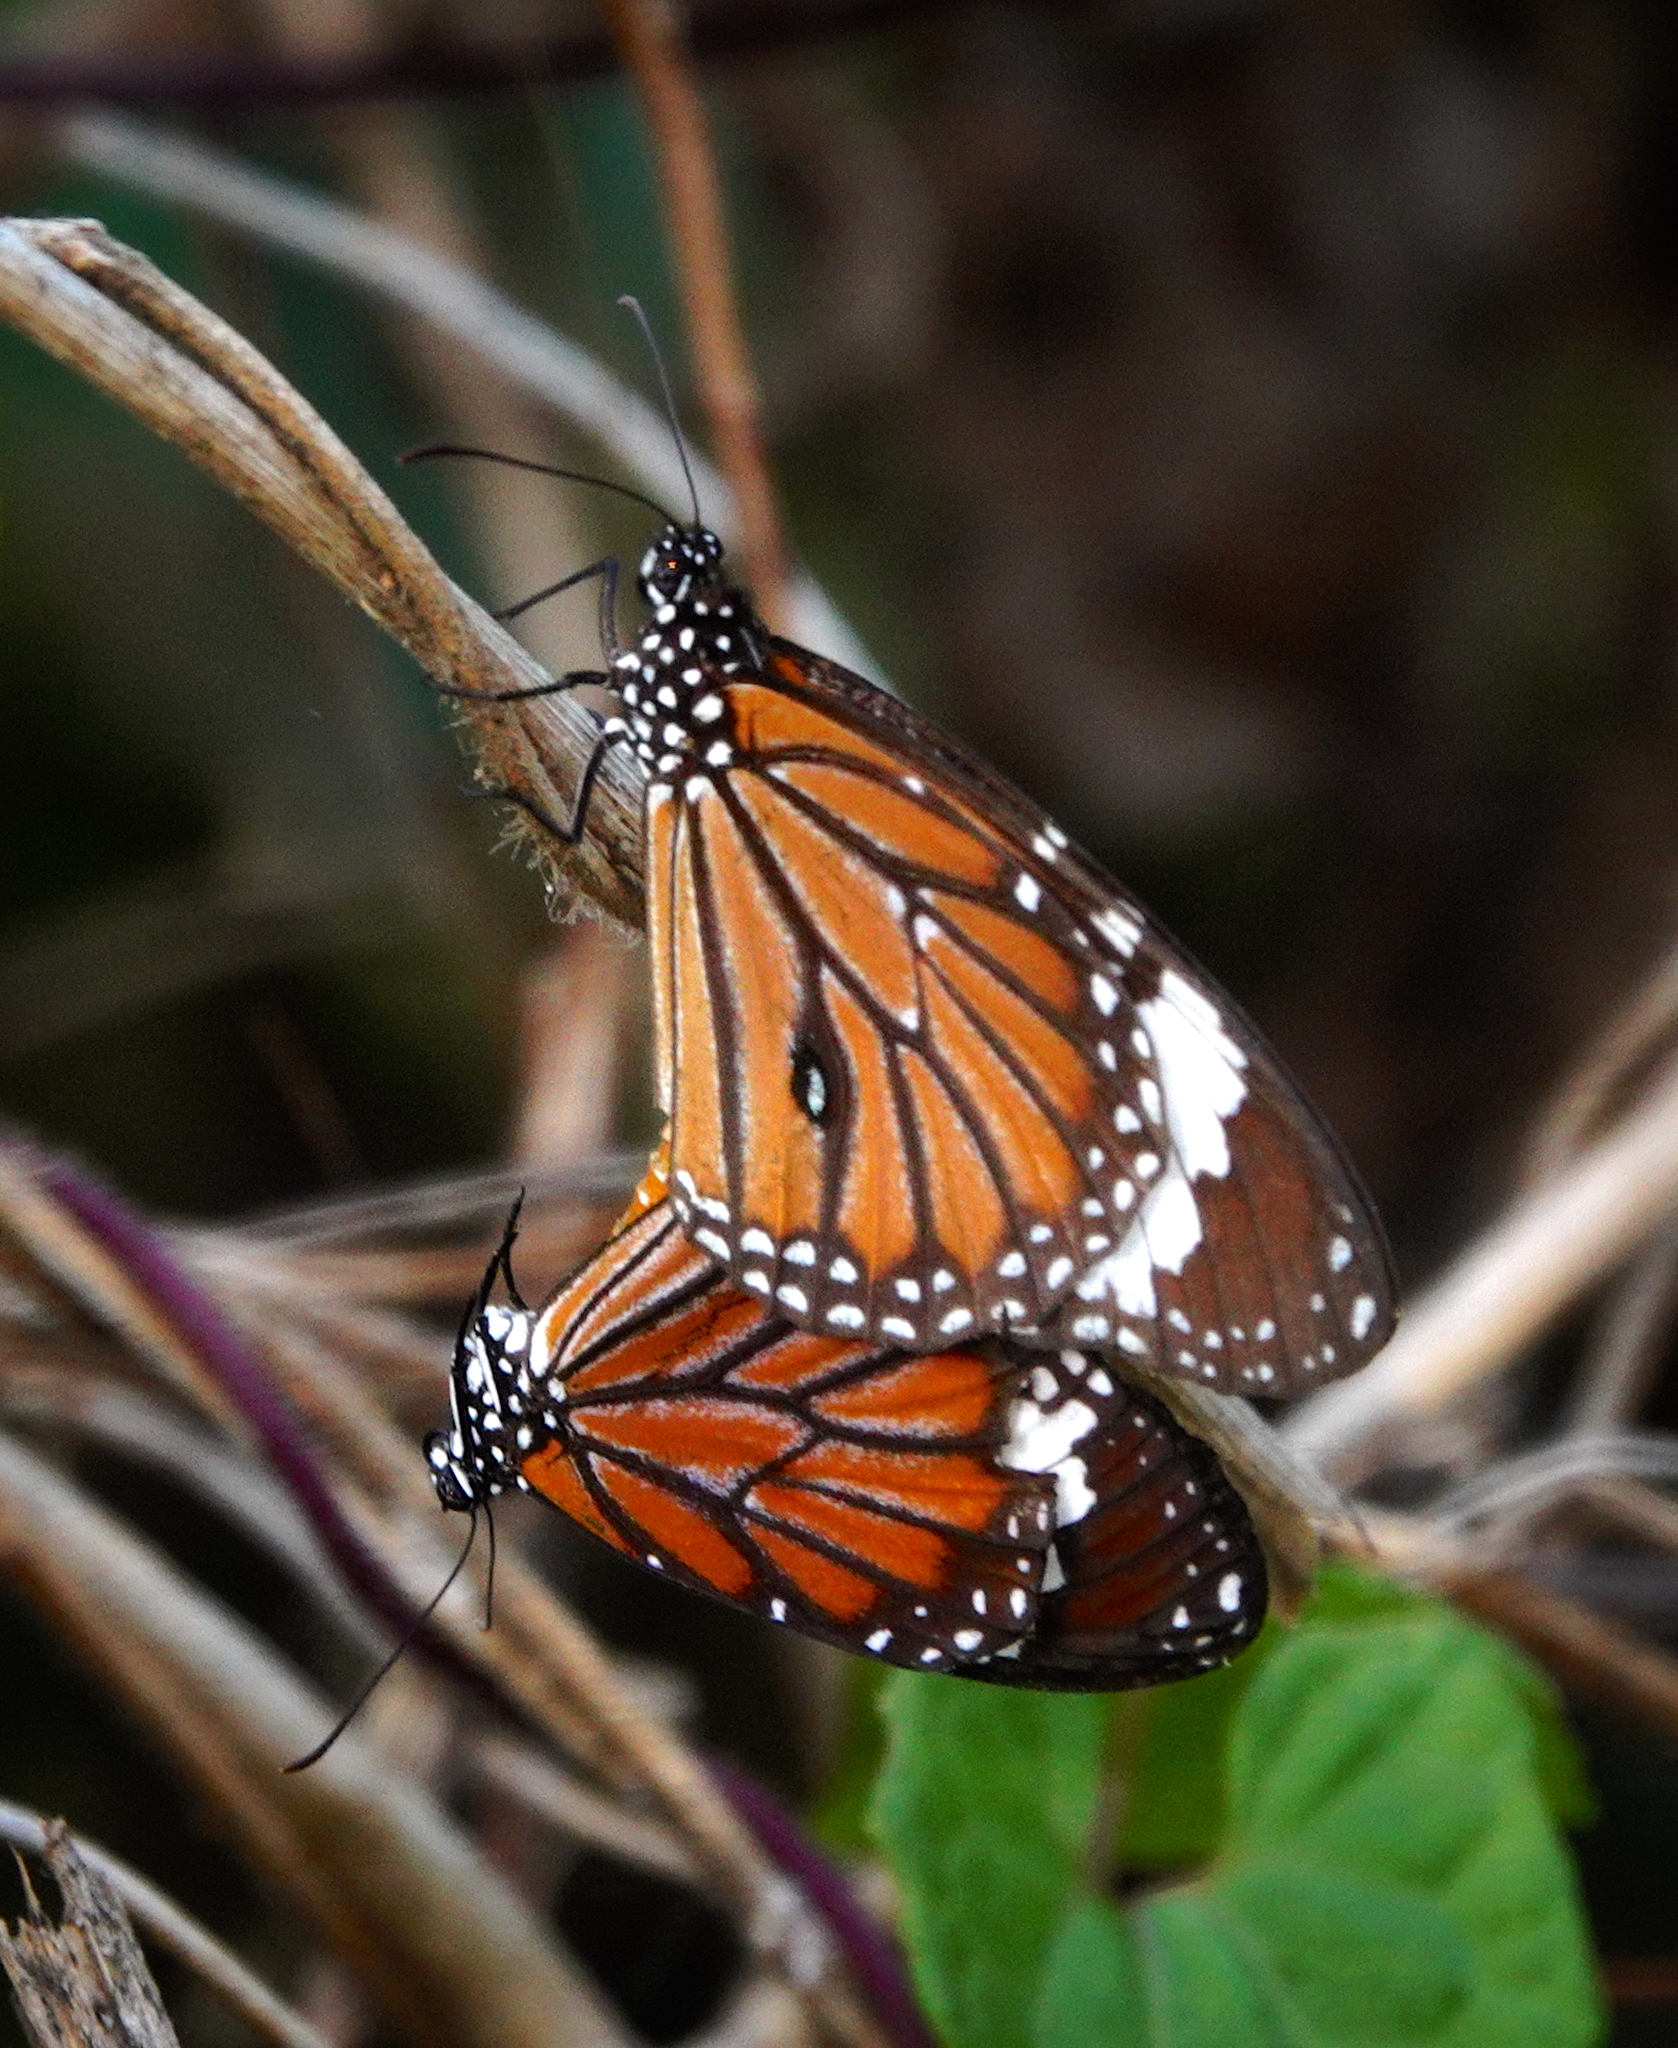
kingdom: Animalia
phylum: Arthropoda
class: Insecta
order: Lepidoptera
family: Nymphalidae
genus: Danaus
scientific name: Danaus genutia
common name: Common tiger butterfly
